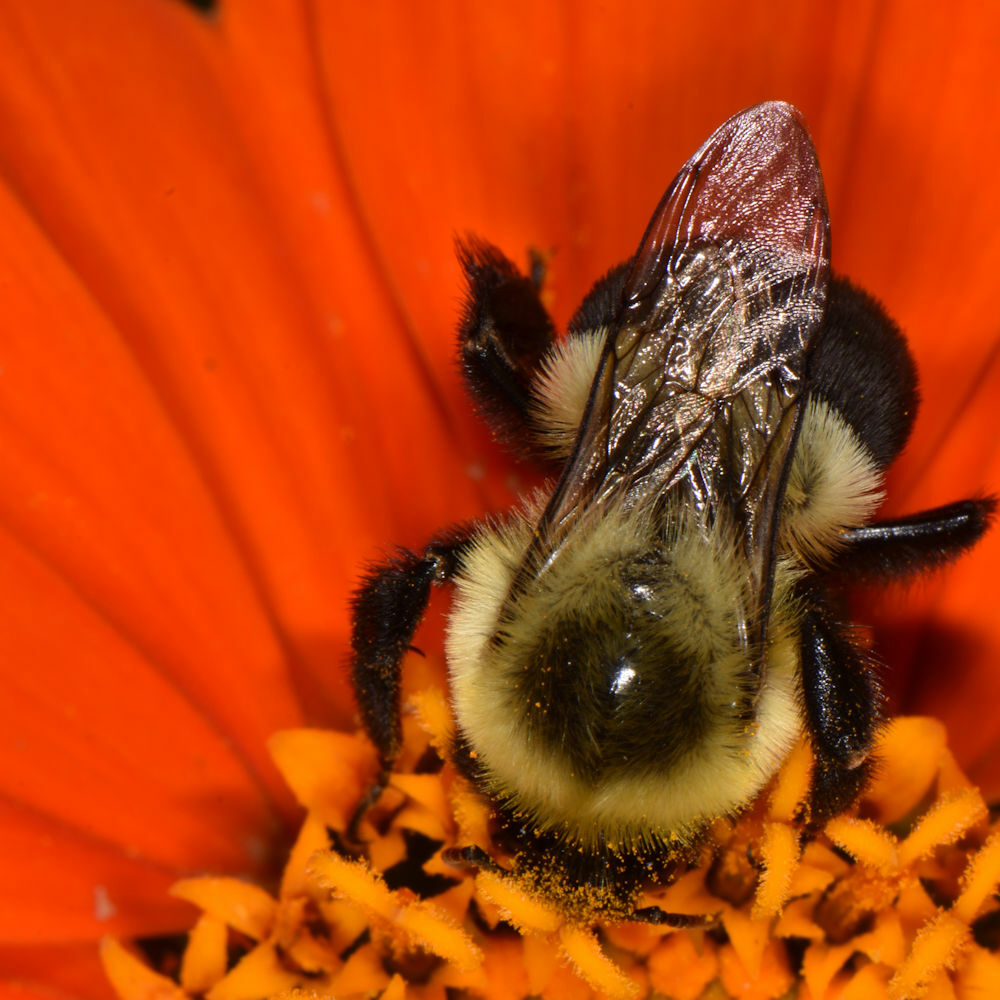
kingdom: Animalia
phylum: Arthropoda
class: Insecta
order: Hymenoptera
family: Apidae
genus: Bombus
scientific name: Bombus impatiens
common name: Common eastern bumble bee
